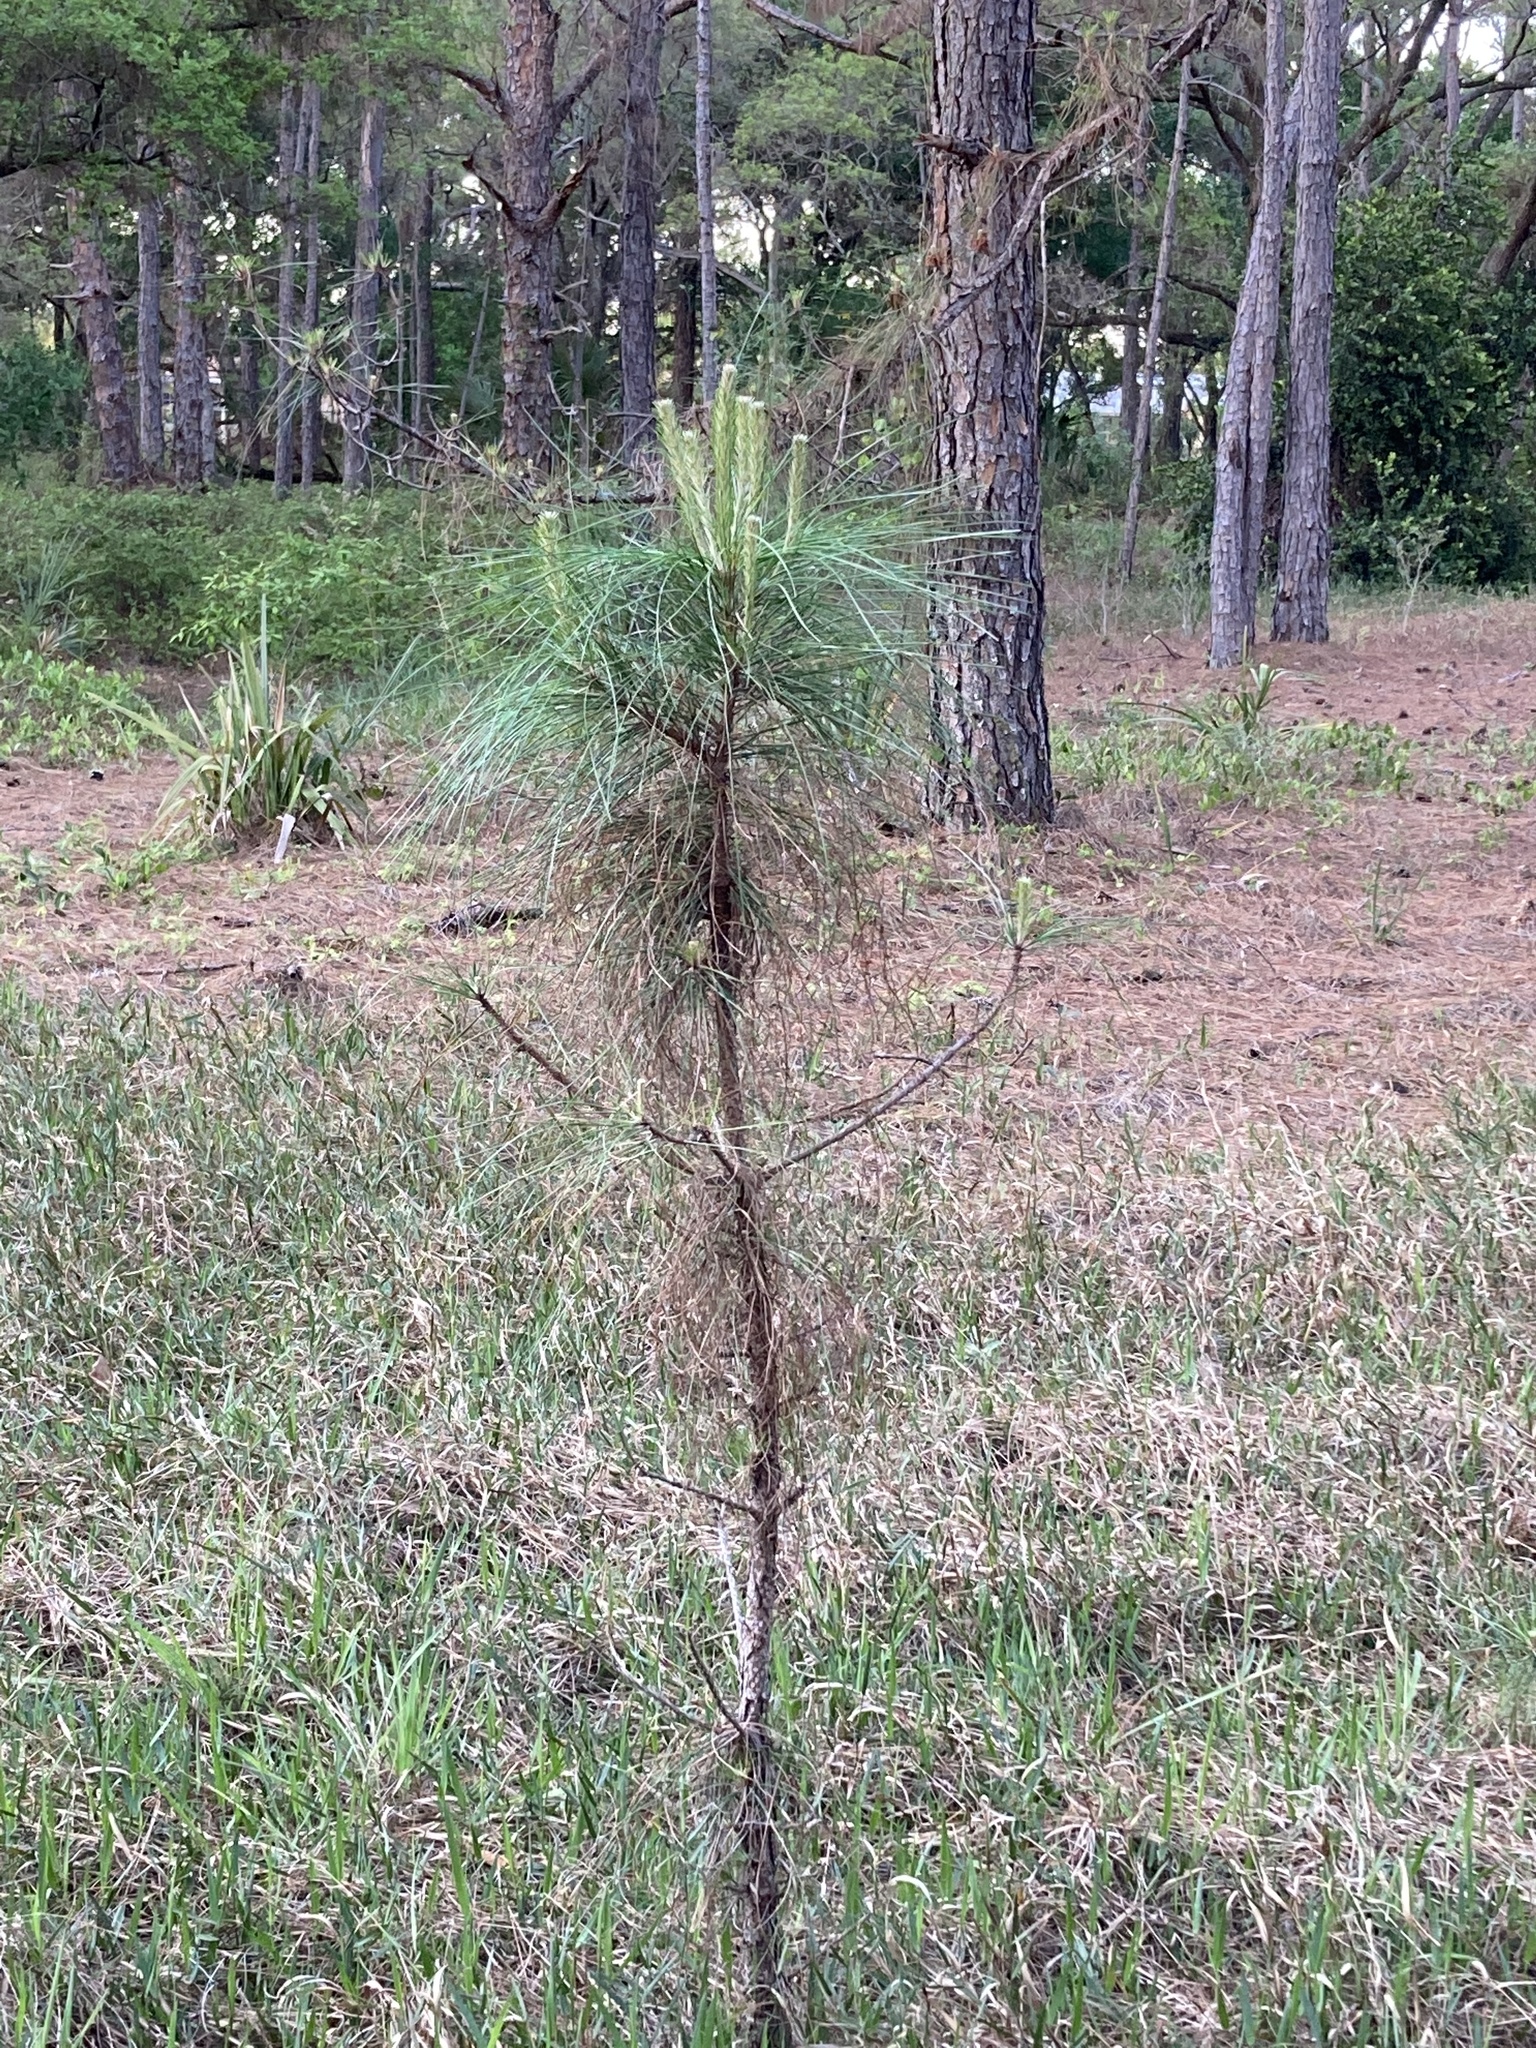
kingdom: Plantae
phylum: Tracheophyta
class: Pinopsida
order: Pinales
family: Pinaceae
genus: Pinus
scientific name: Pinus elliottii
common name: Slash pine
